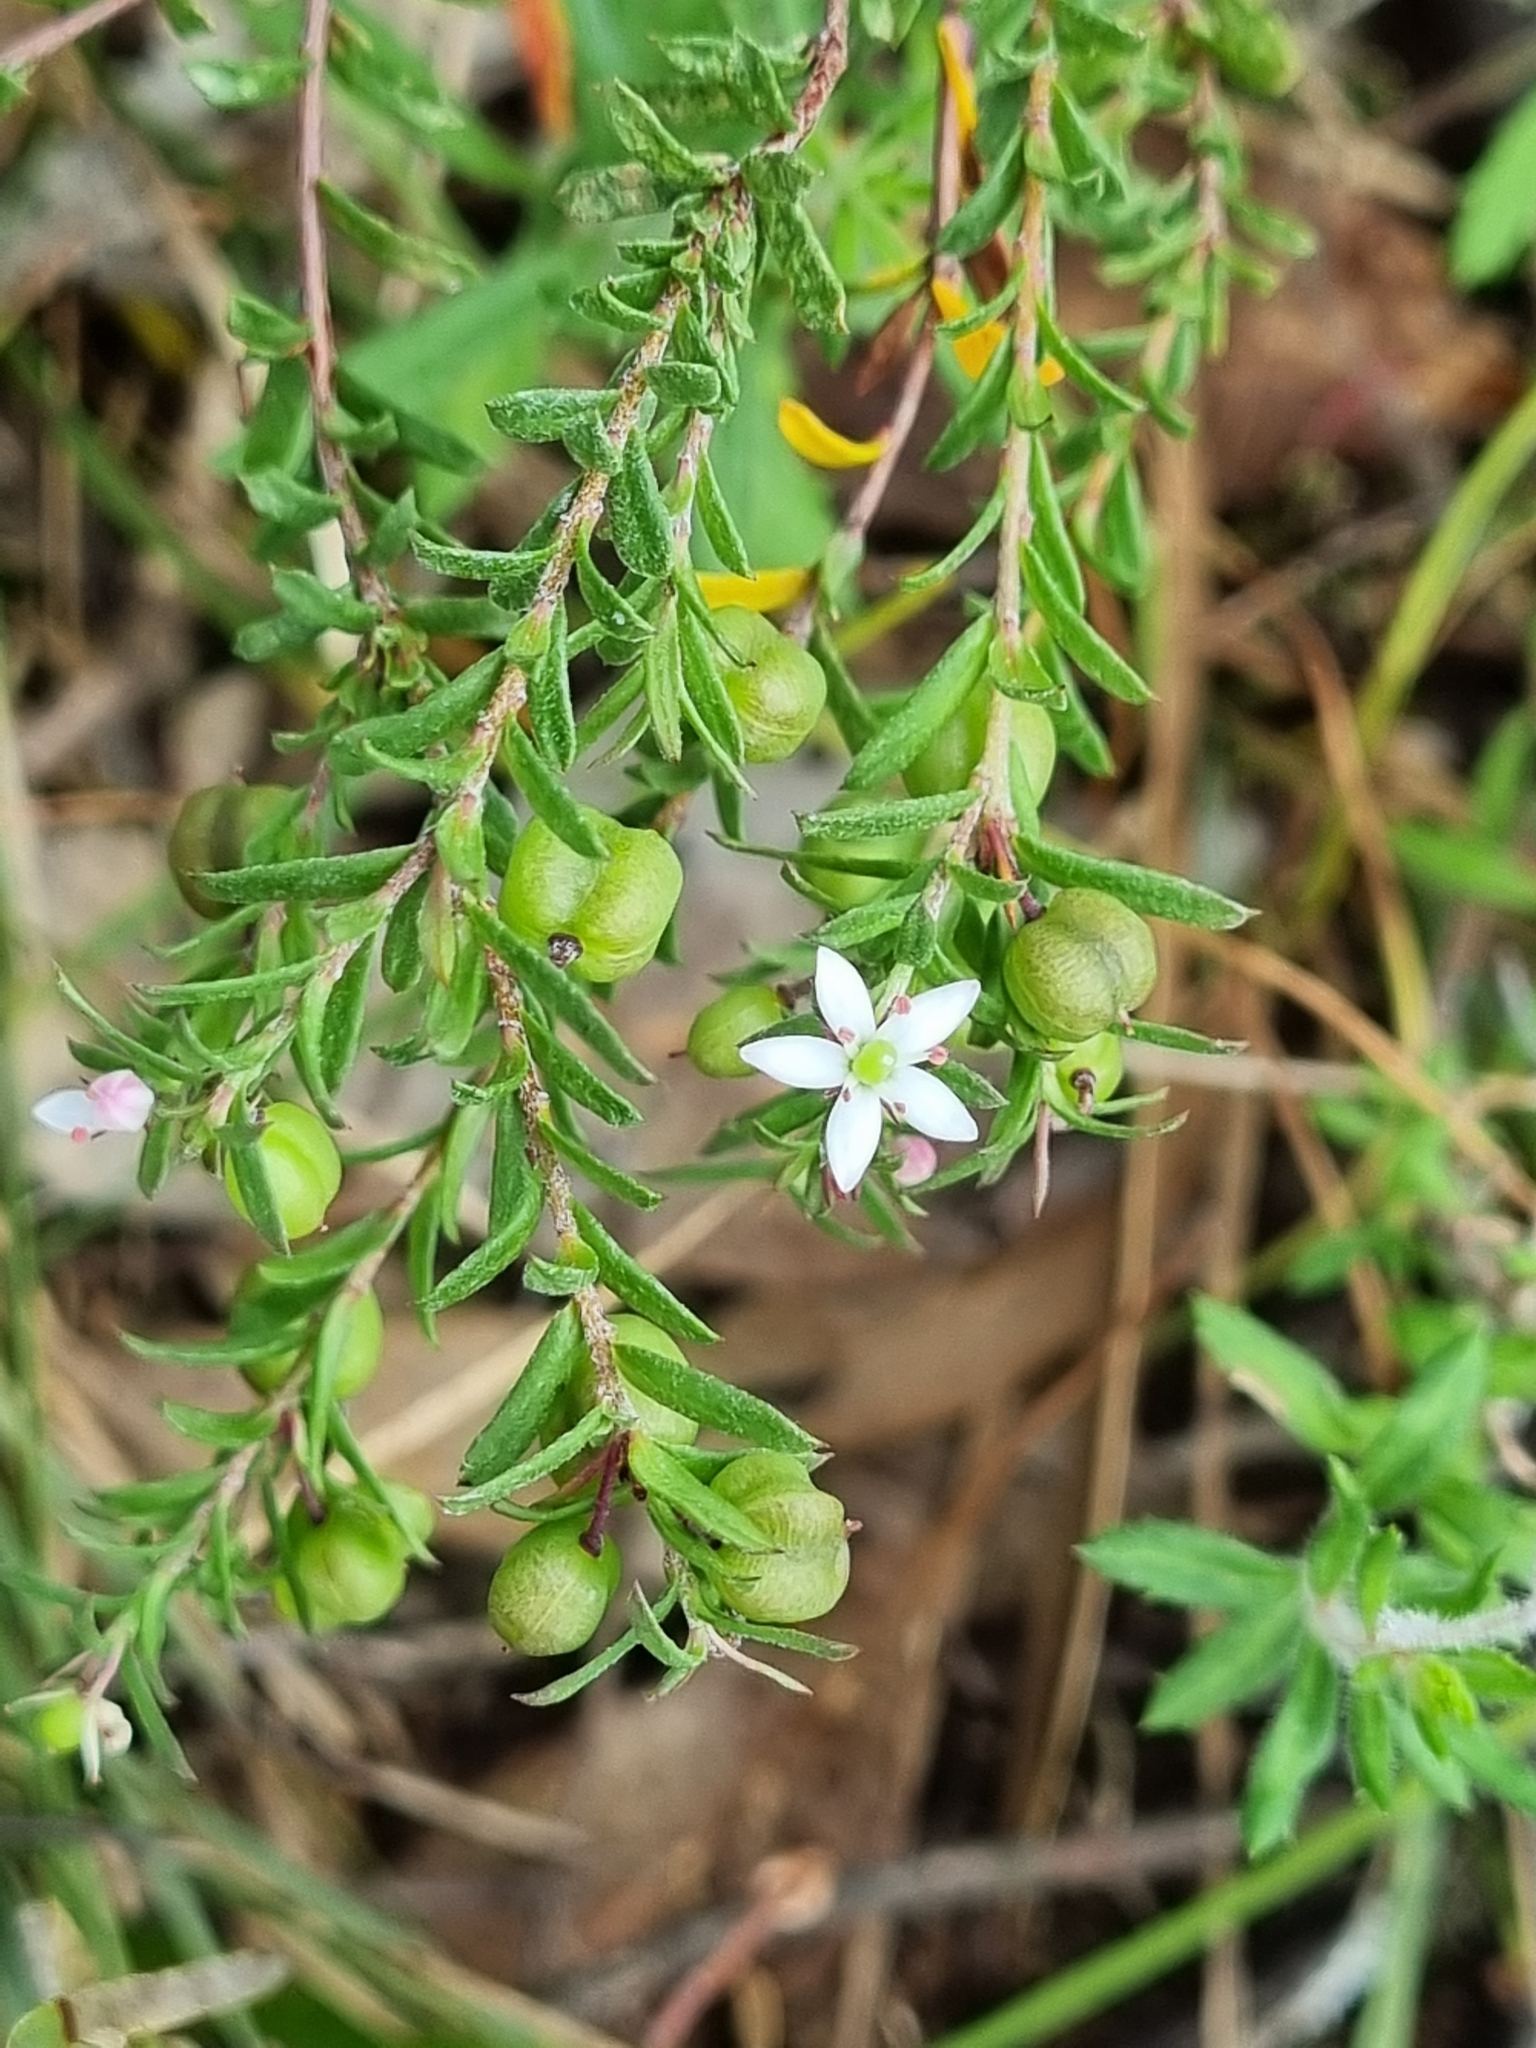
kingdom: Plantae
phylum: Tracheophyta
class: Magnoliopsida
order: Apiales
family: Pittosporaceae
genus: Rhytidosporum
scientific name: Rhytidosporum procumbens
